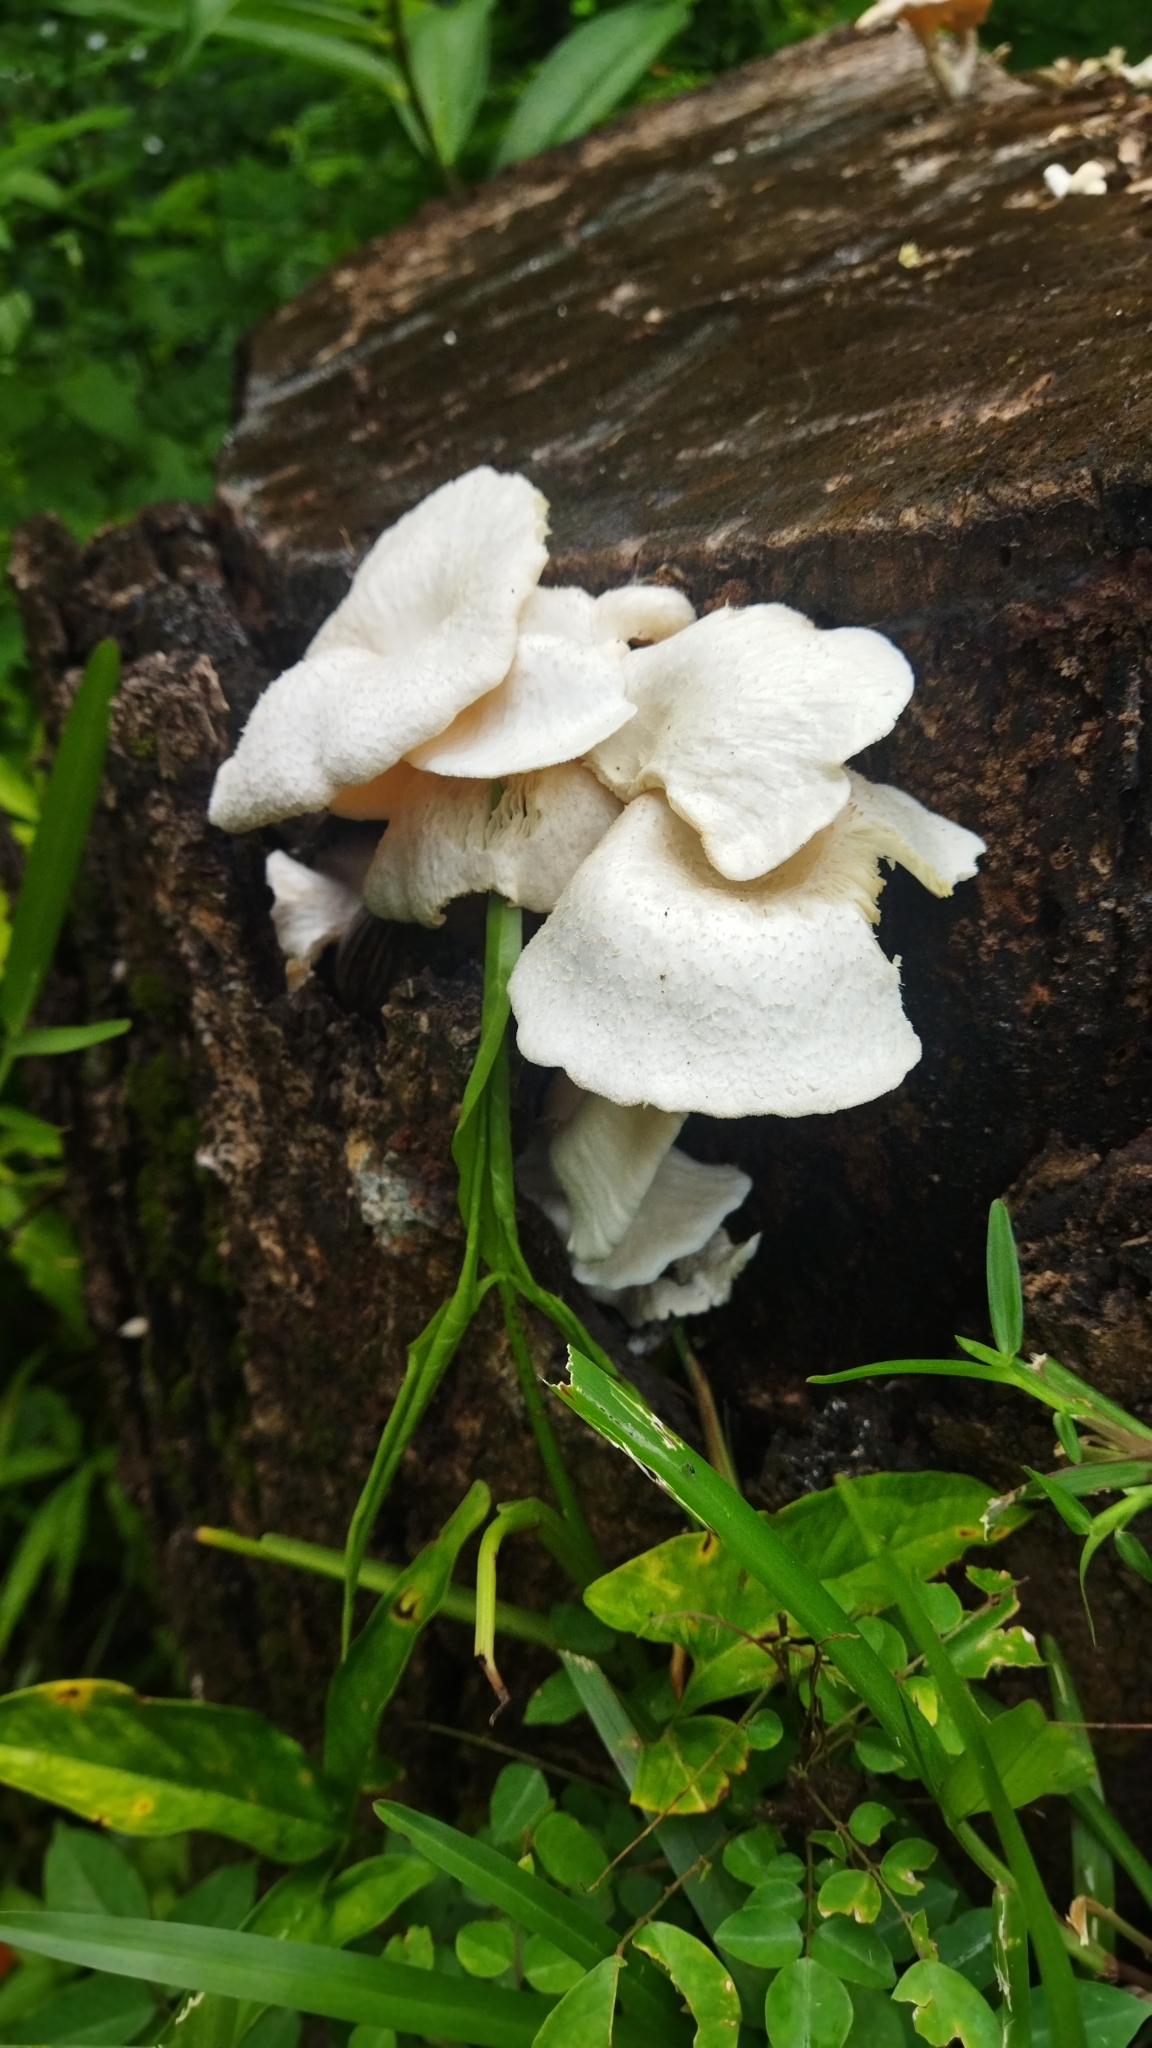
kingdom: Fungi
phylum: Basidiomycota
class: Agaricomycetes
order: Polyporales
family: Polyporaceae
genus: Lentinus
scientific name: Lentinus squarrosulus
